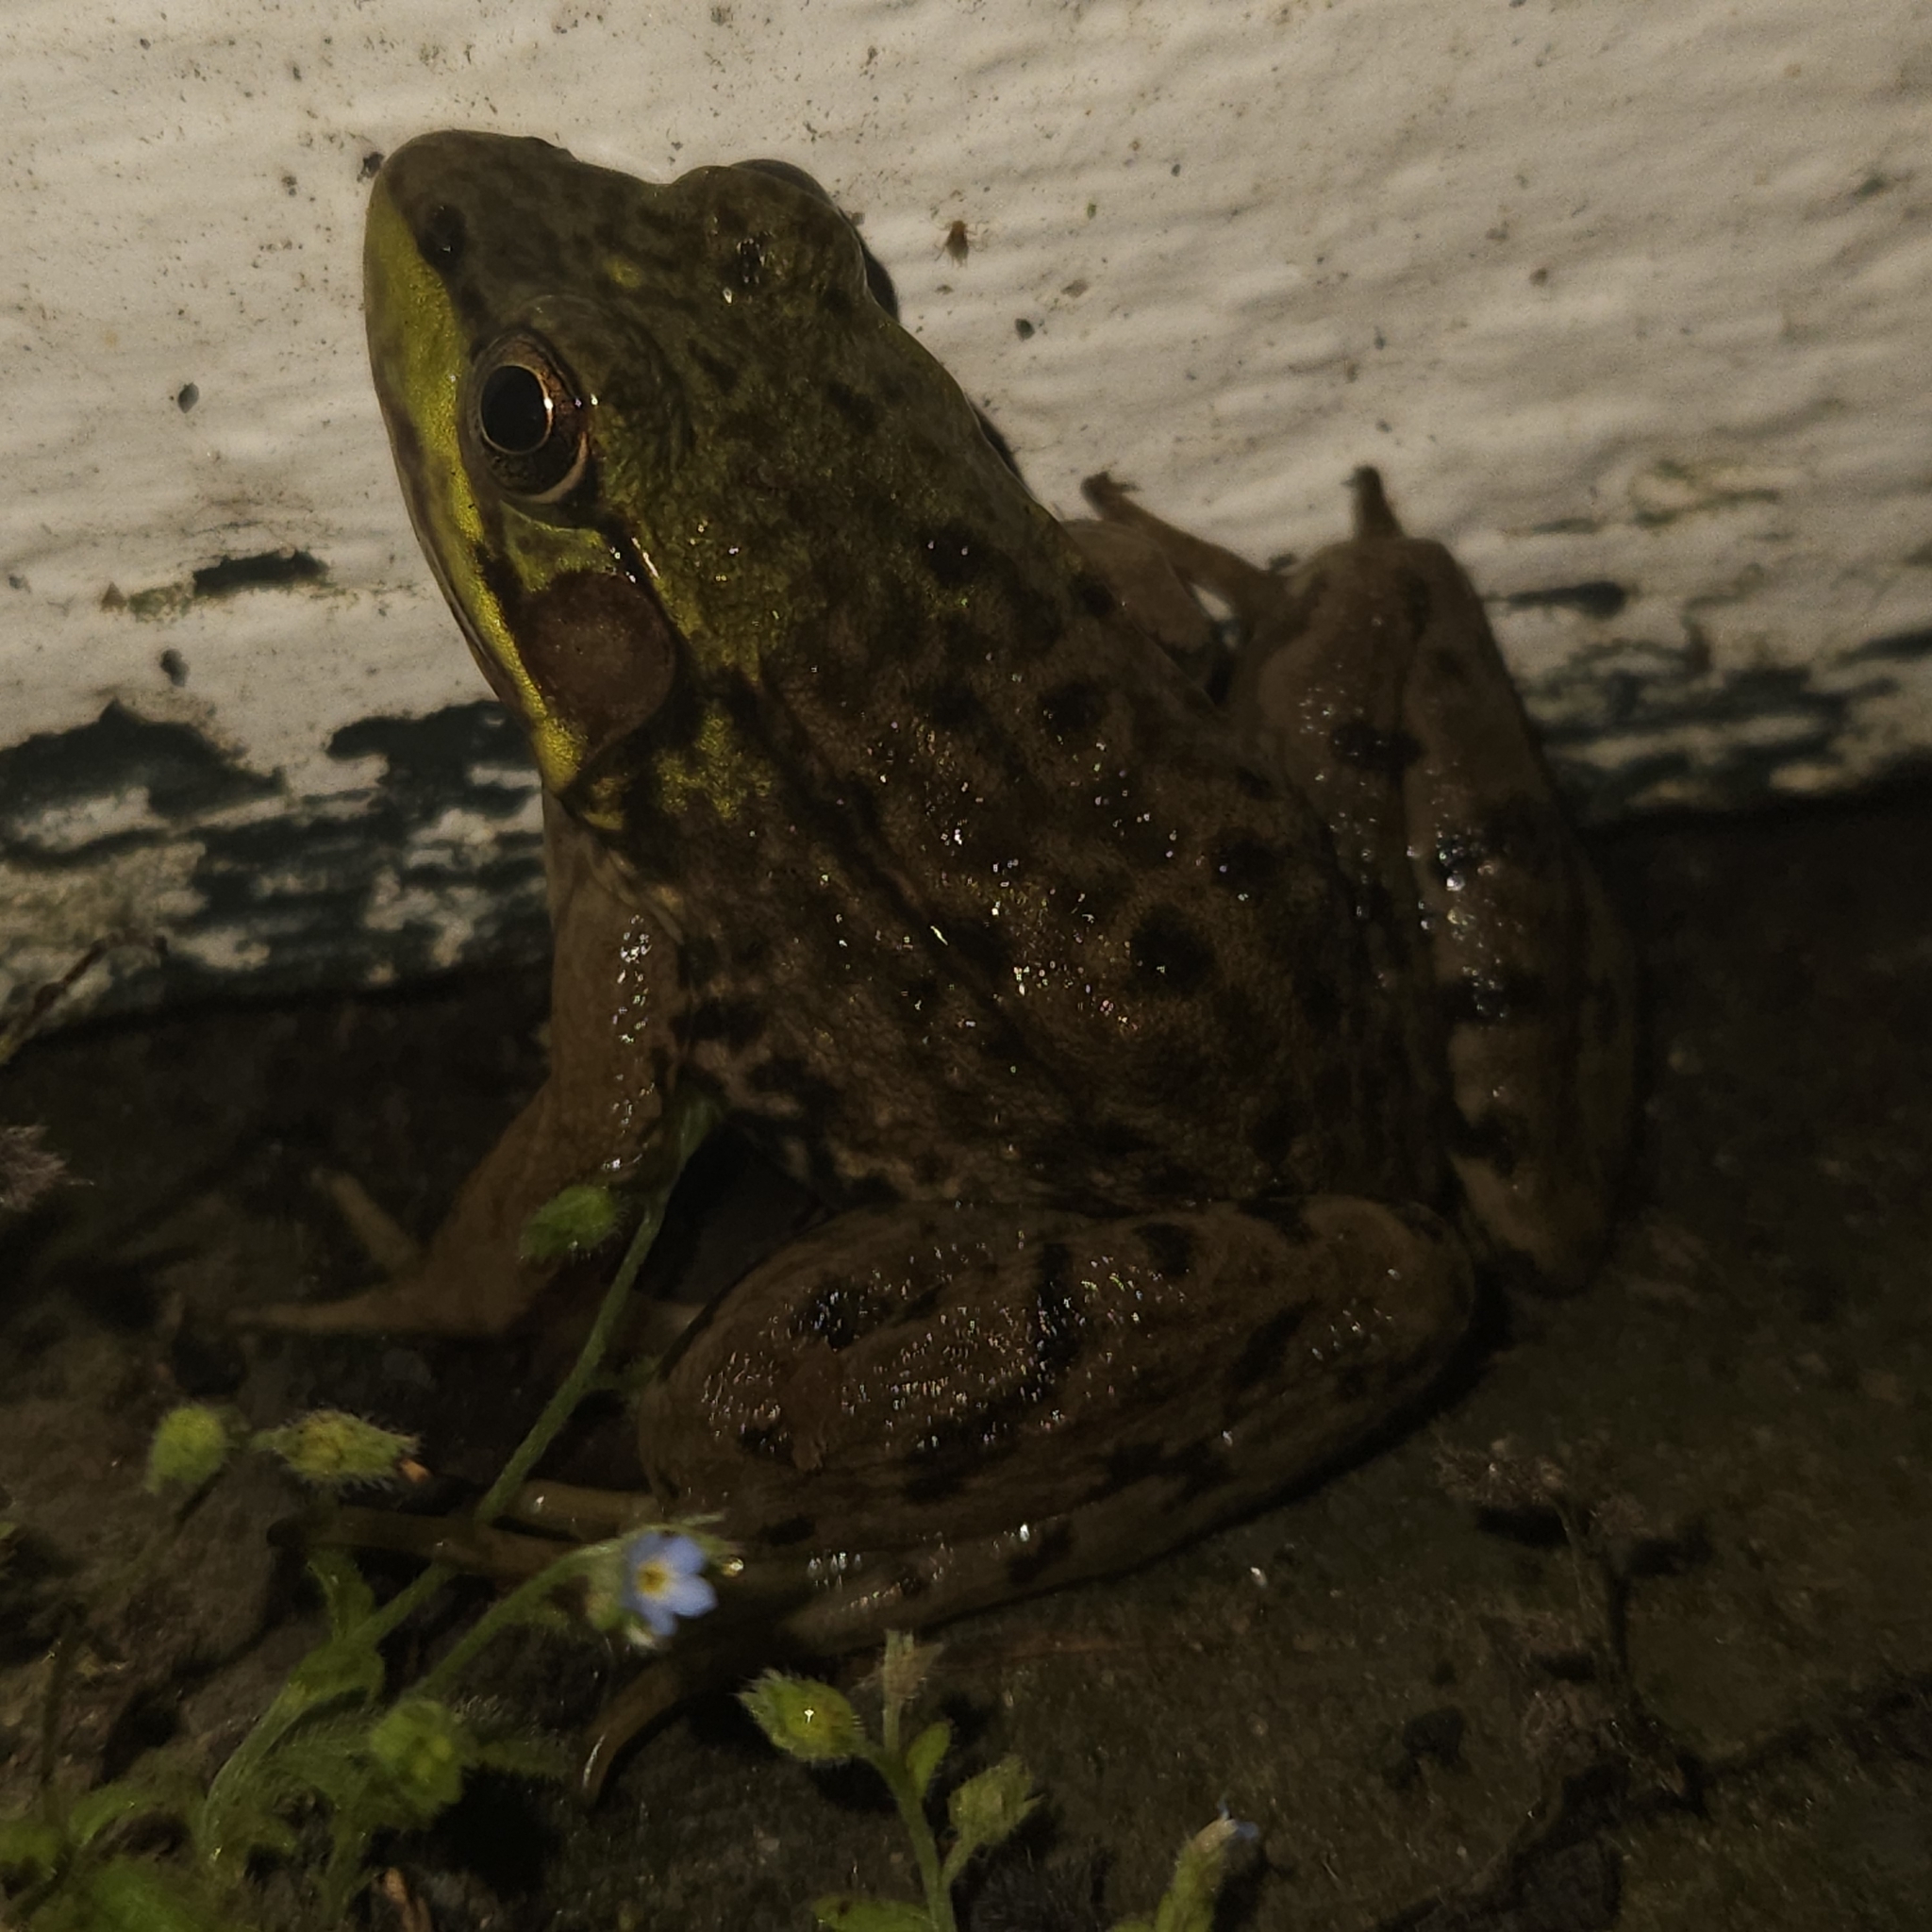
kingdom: Animalia
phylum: Chordata
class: Amphibia
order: Anura
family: Ranidae
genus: Lithobates
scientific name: Lithobates clamitans
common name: Green frog
